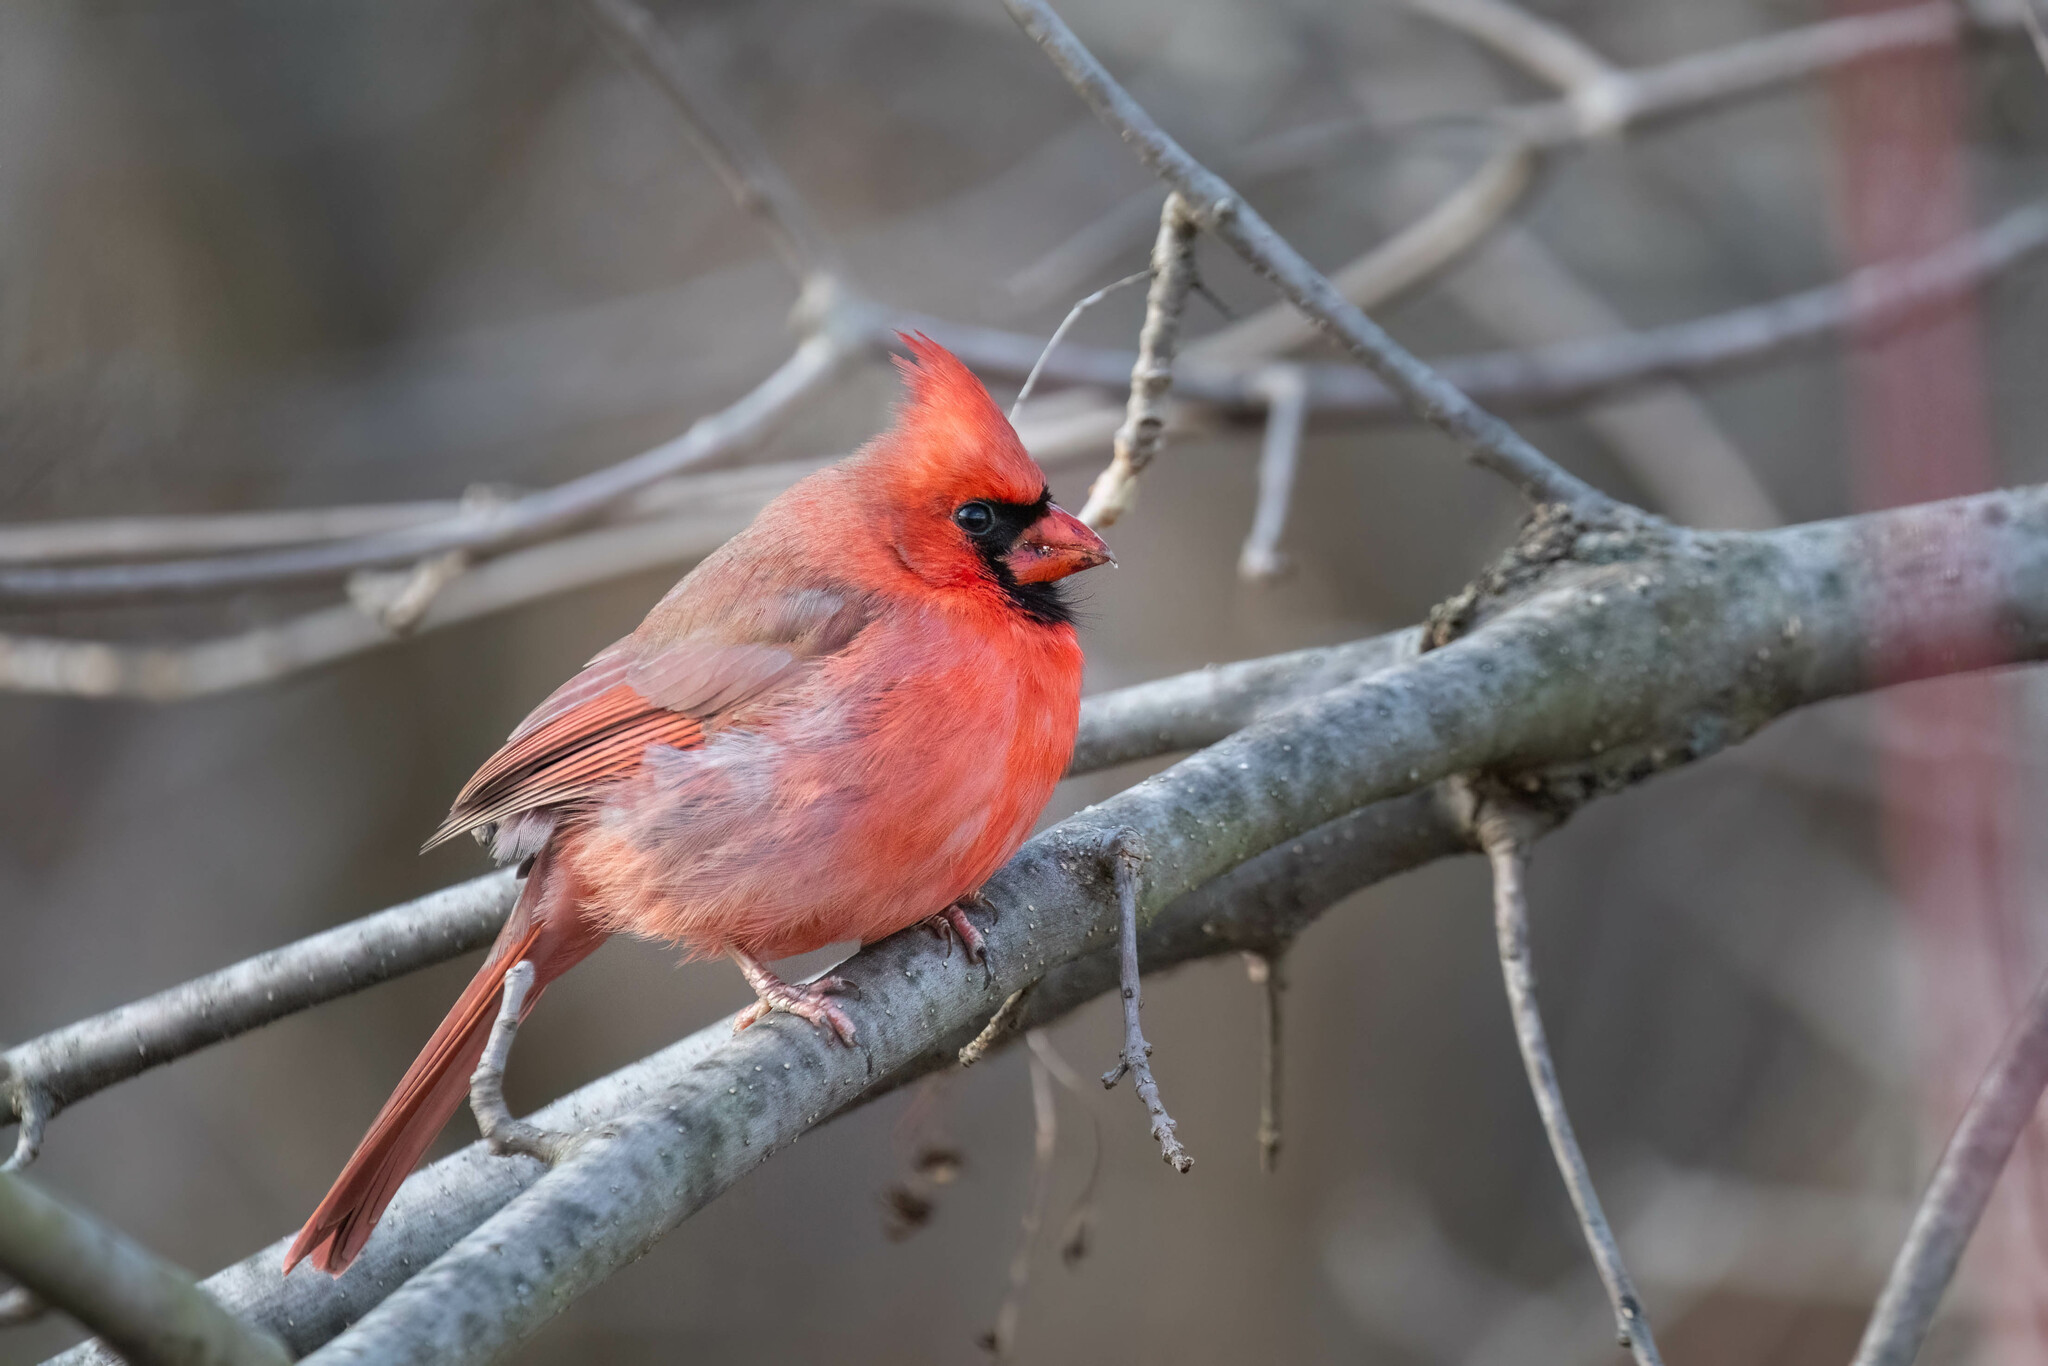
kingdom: Animalia
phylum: Chordata
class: Aves
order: Passeriformes
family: Cardinalidae
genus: Cardinalis
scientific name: Cardinalis cardinalis
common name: Northern cardinal
